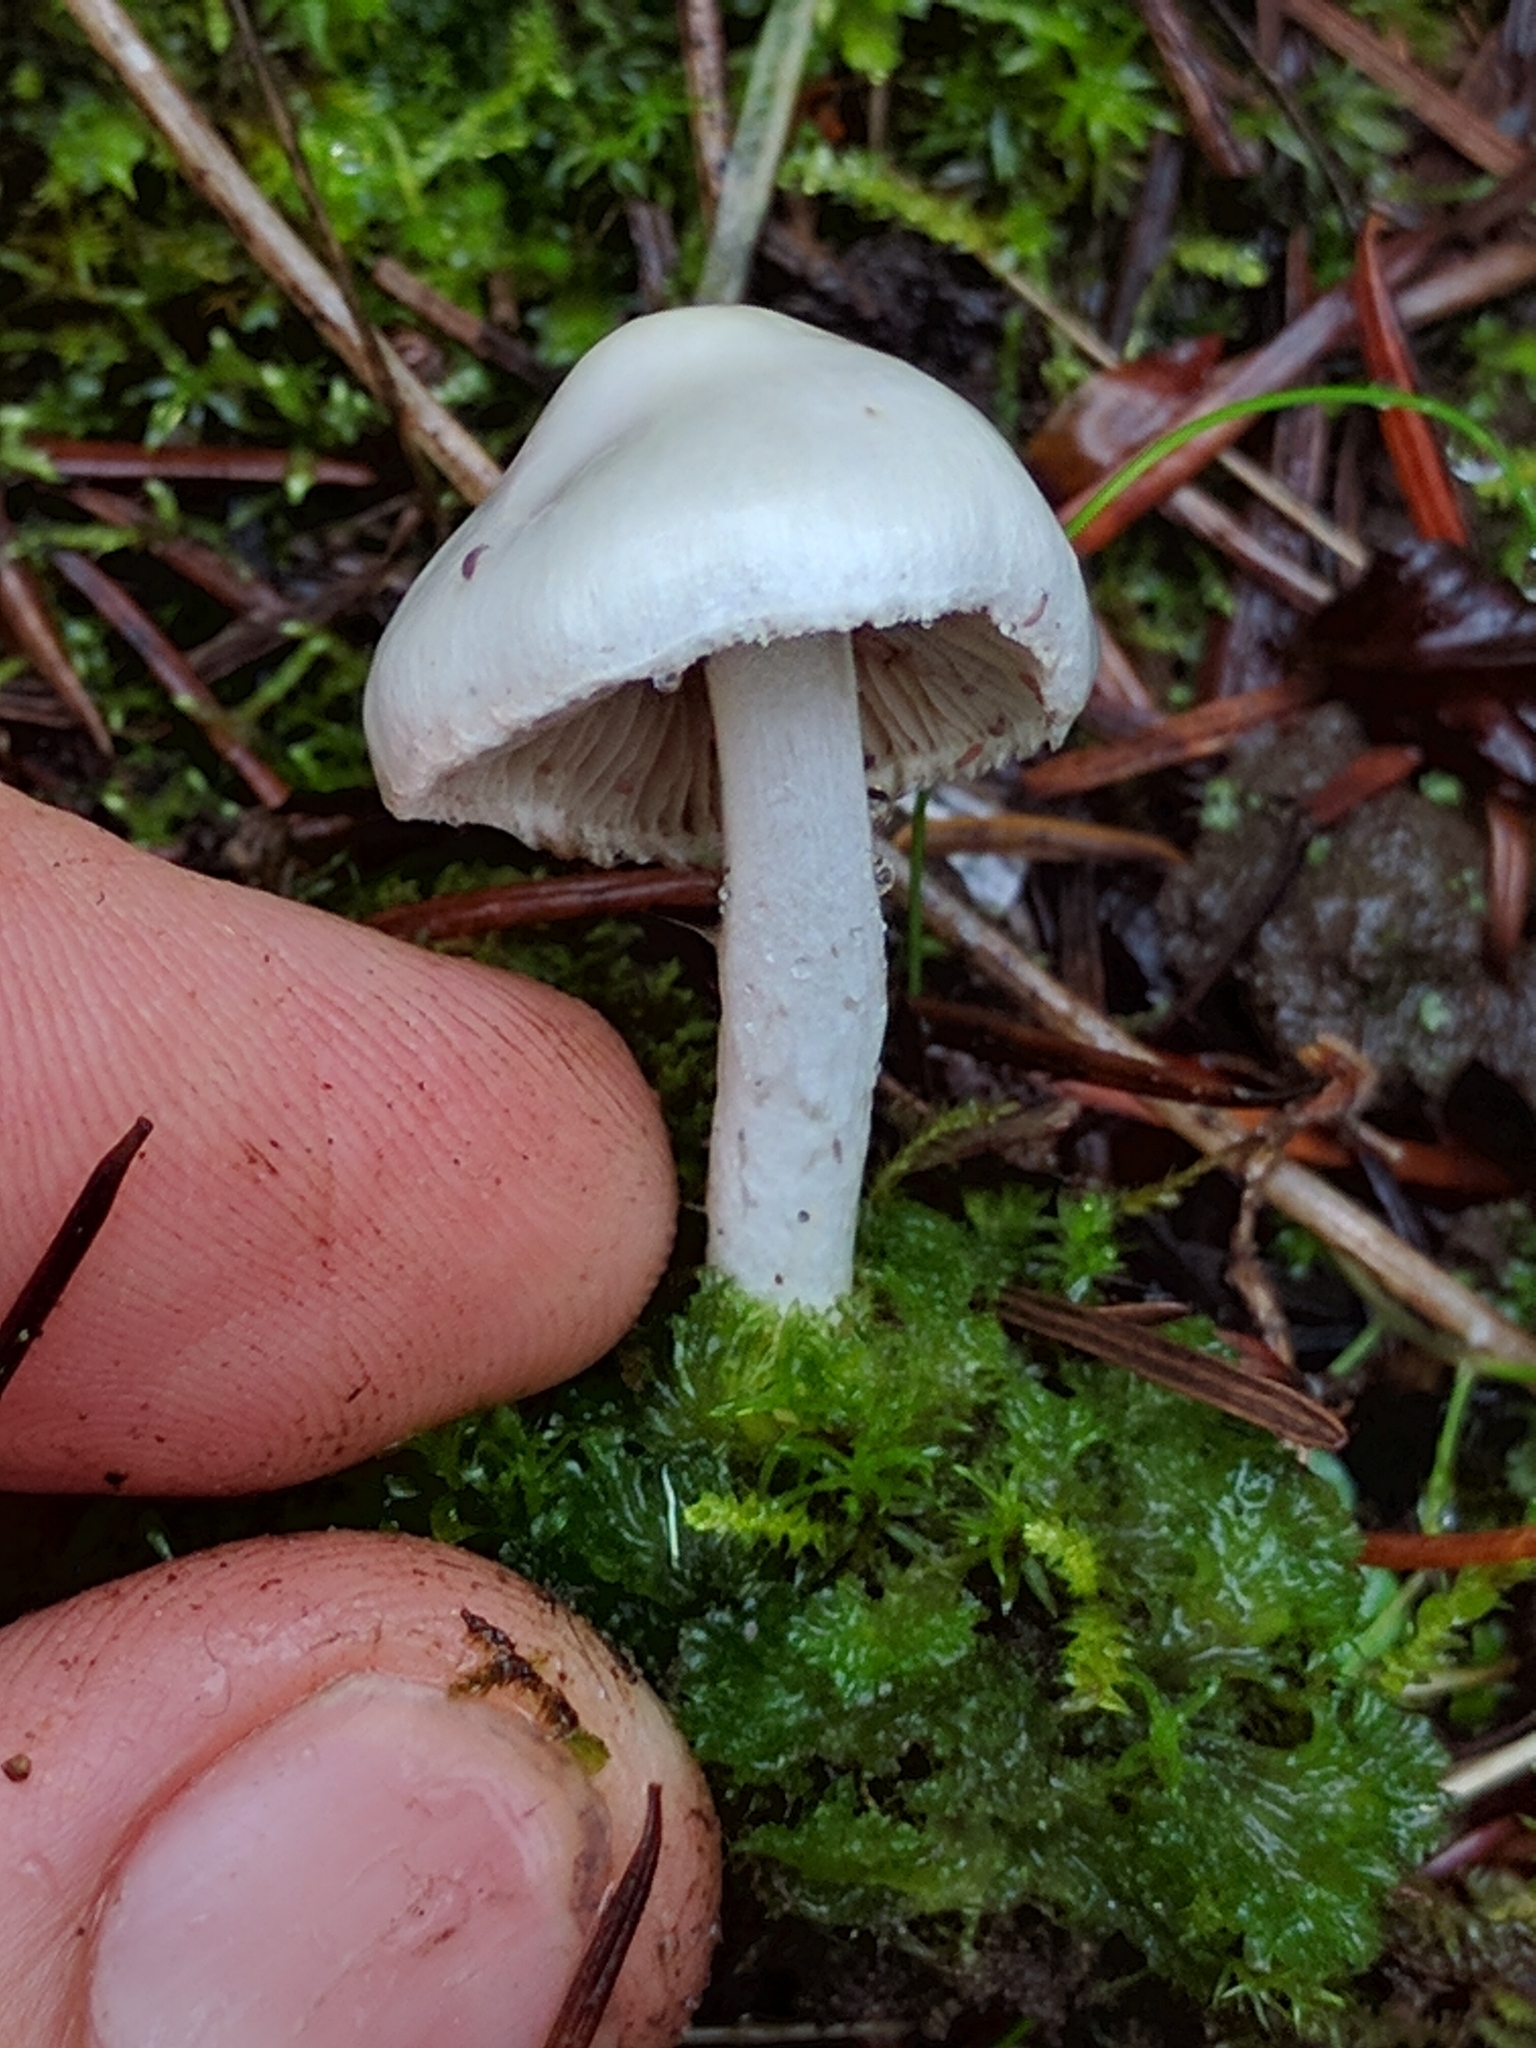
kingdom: Fungi
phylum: Basidiomycota
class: Agaricomycetes
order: Agaricales
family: Inocybaceae
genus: Inocybe
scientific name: Inocybe geophylla
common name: White fibrecap
